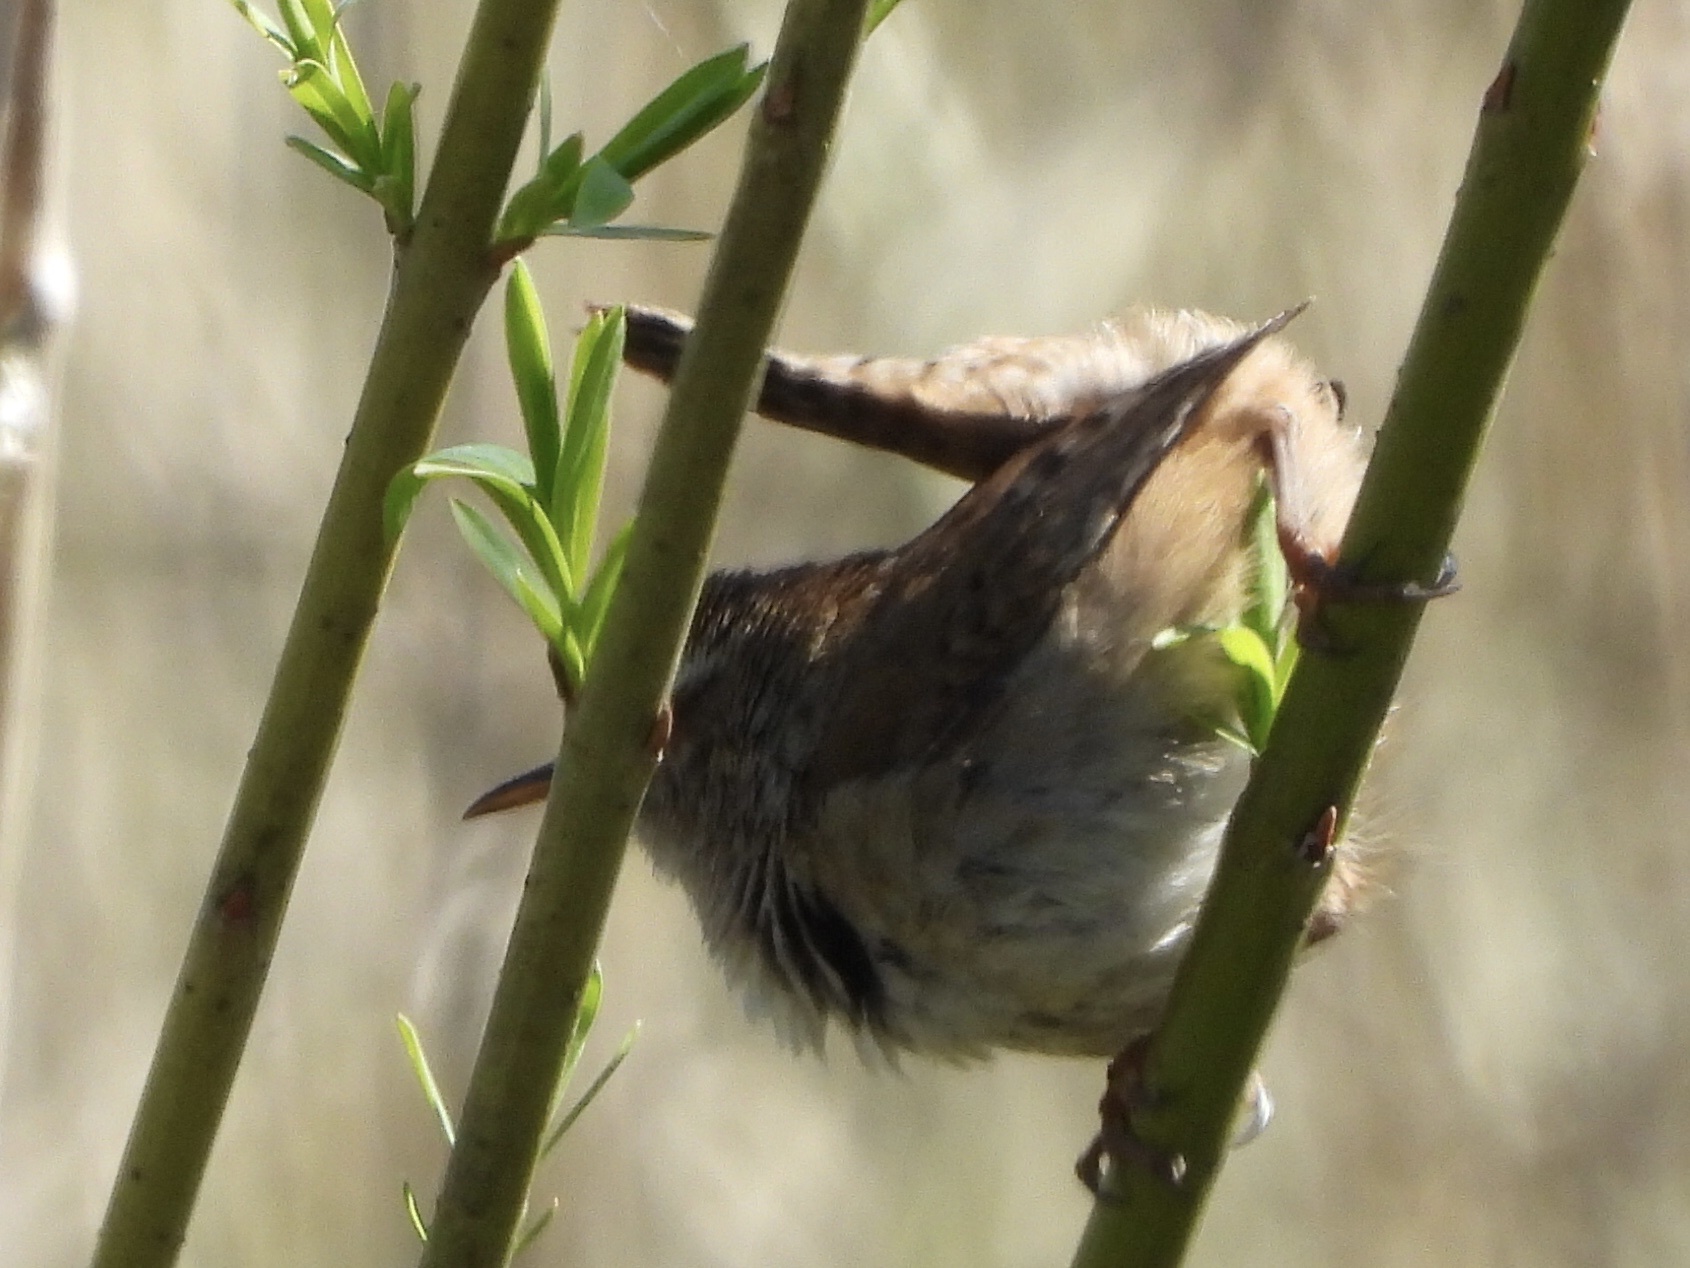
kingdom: Animalia
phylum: Chordata
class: Aves
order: Passeriformes
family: Troglodytidae
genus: Cistothorus
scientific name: Cistothorus palustris
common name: Marsh wren
